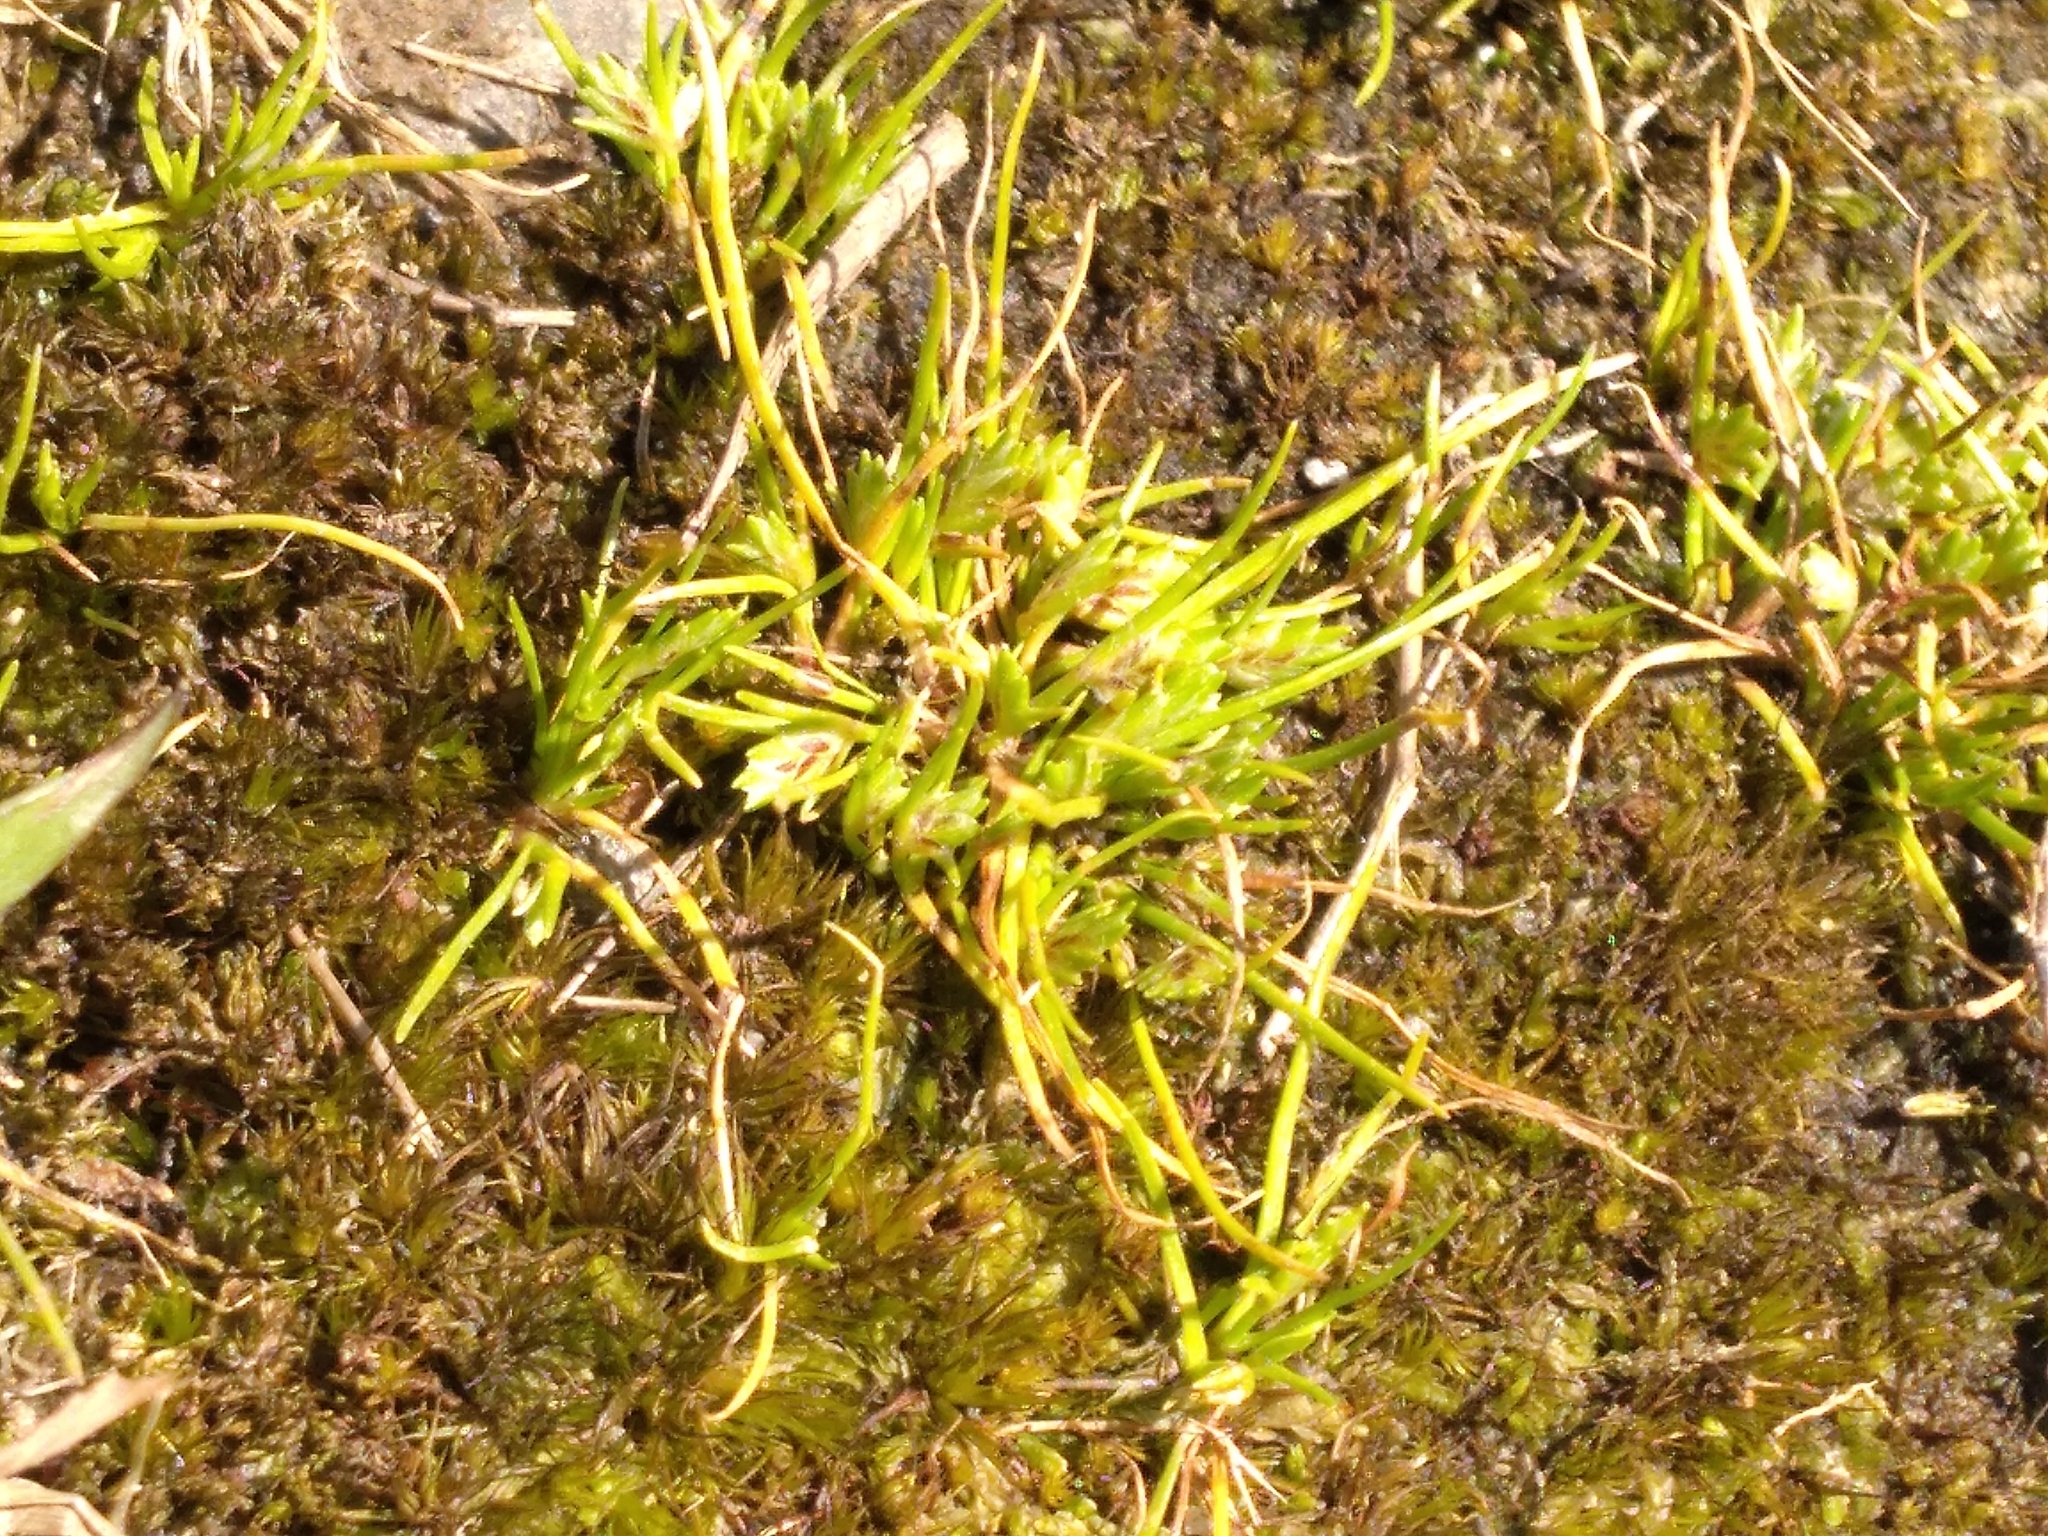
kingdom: Plantae
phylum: Tracheophyta
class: Liliopsida
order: Poales
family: Cyperaceae
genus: Isolepis
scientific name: Isolepis levynsiana
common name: Sedge
